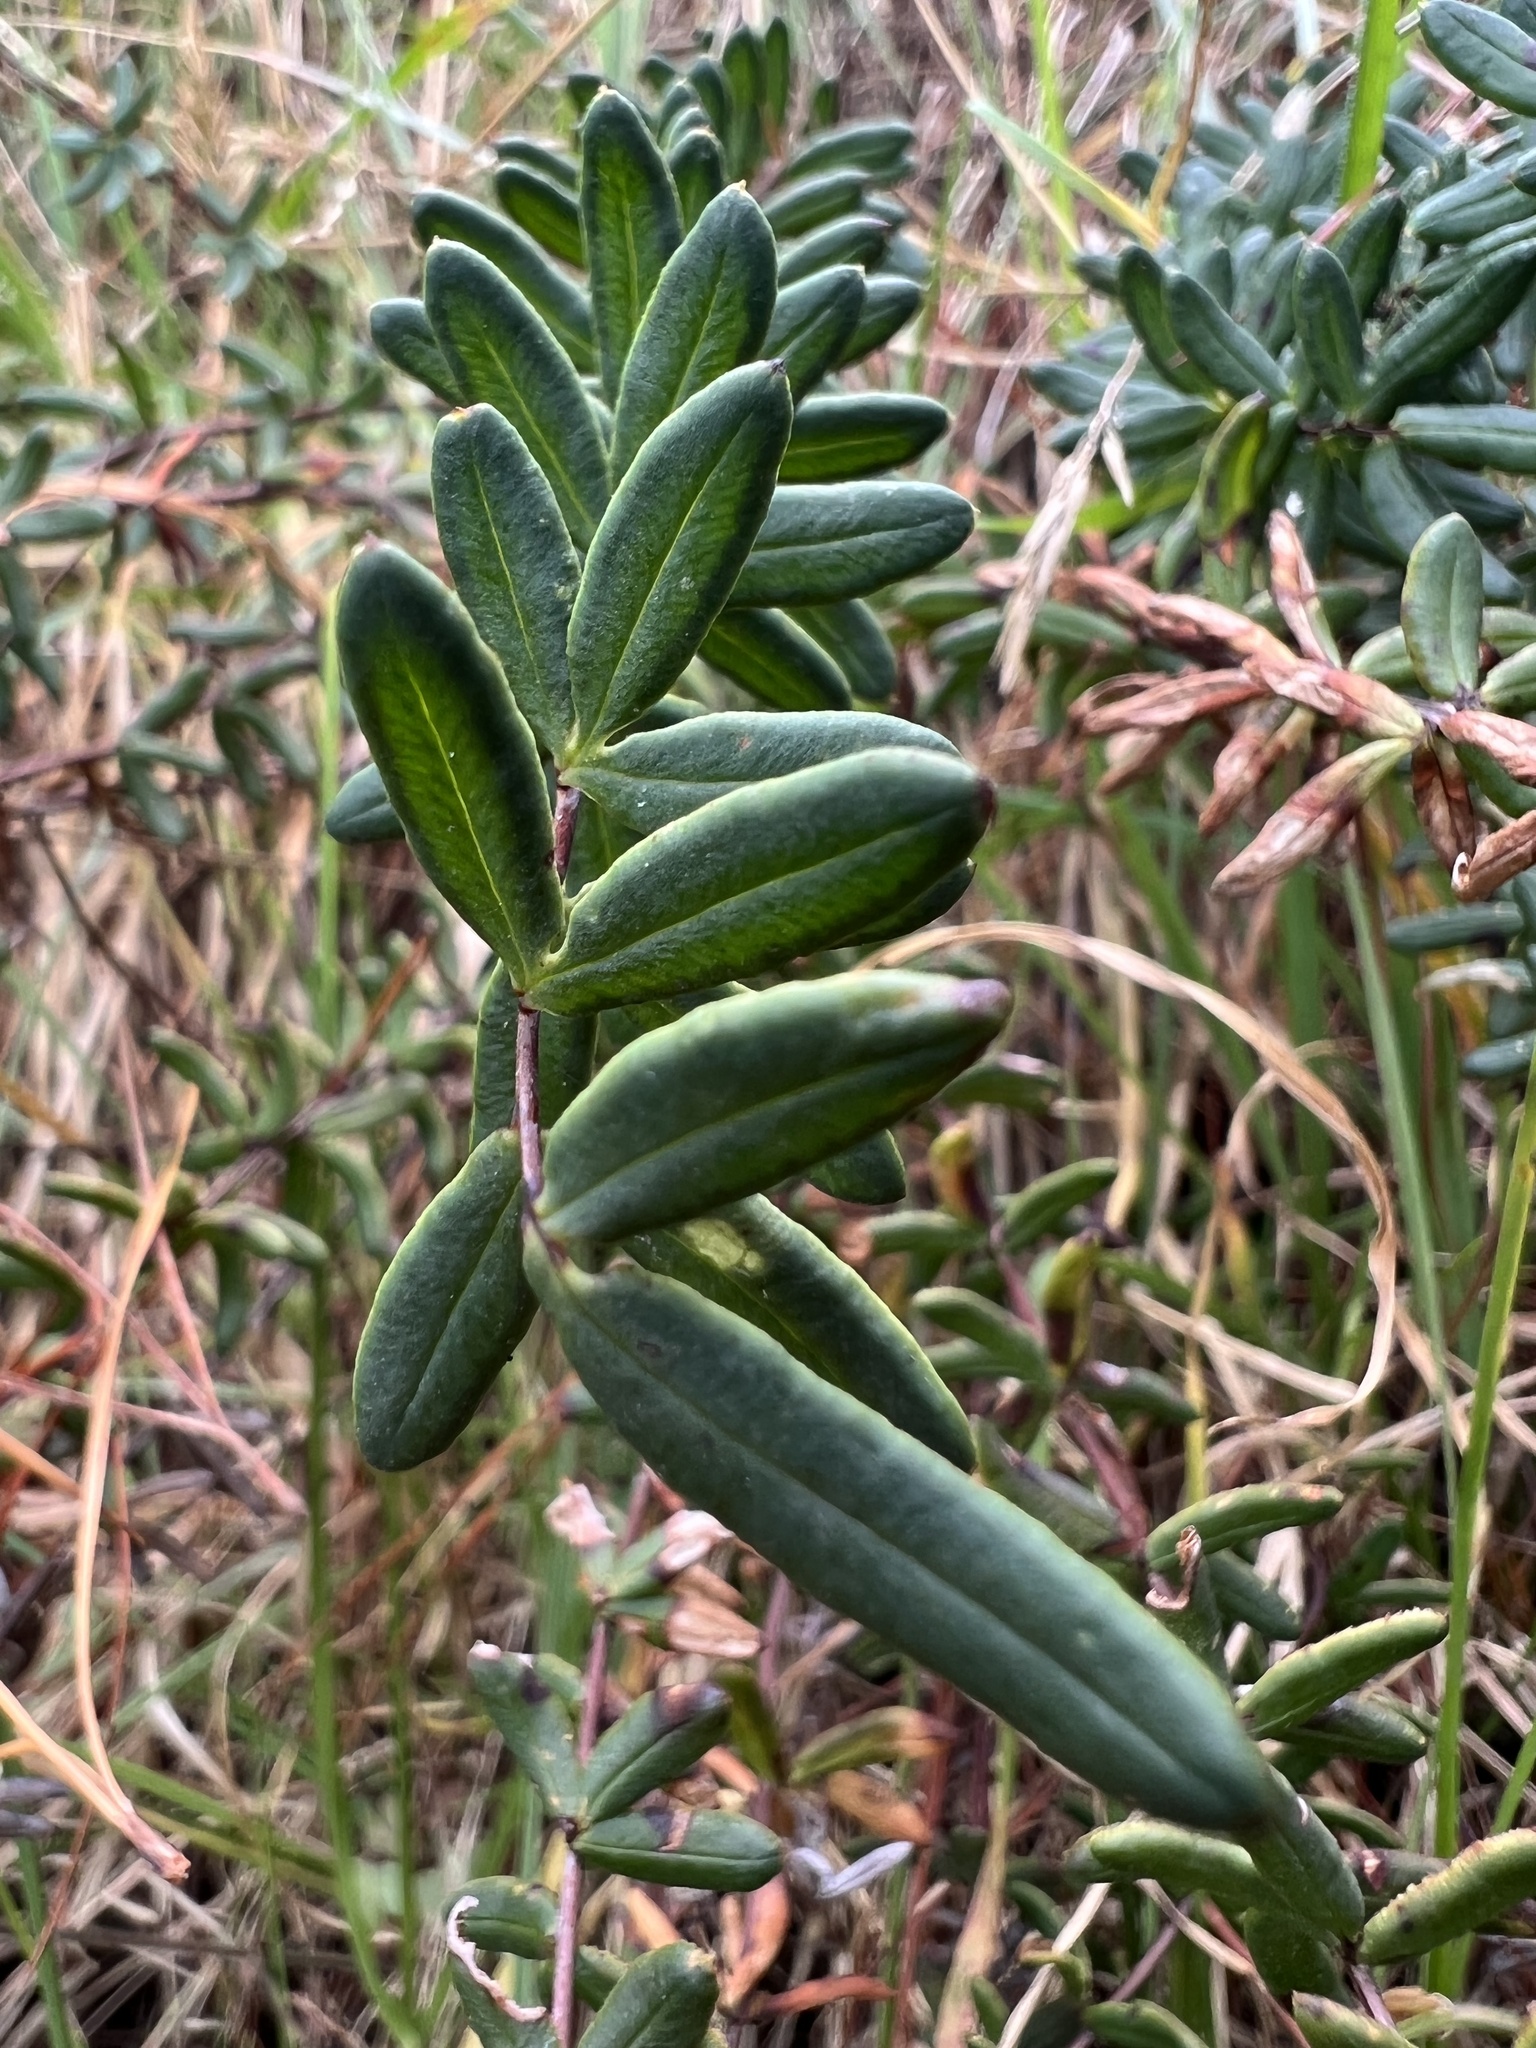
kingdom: Plantae
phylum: Tracheophyta
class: Polypodiopsida
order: Polypodiales
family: Pteridaceae
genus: Pellaea
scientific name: Pellaea ternifolia
